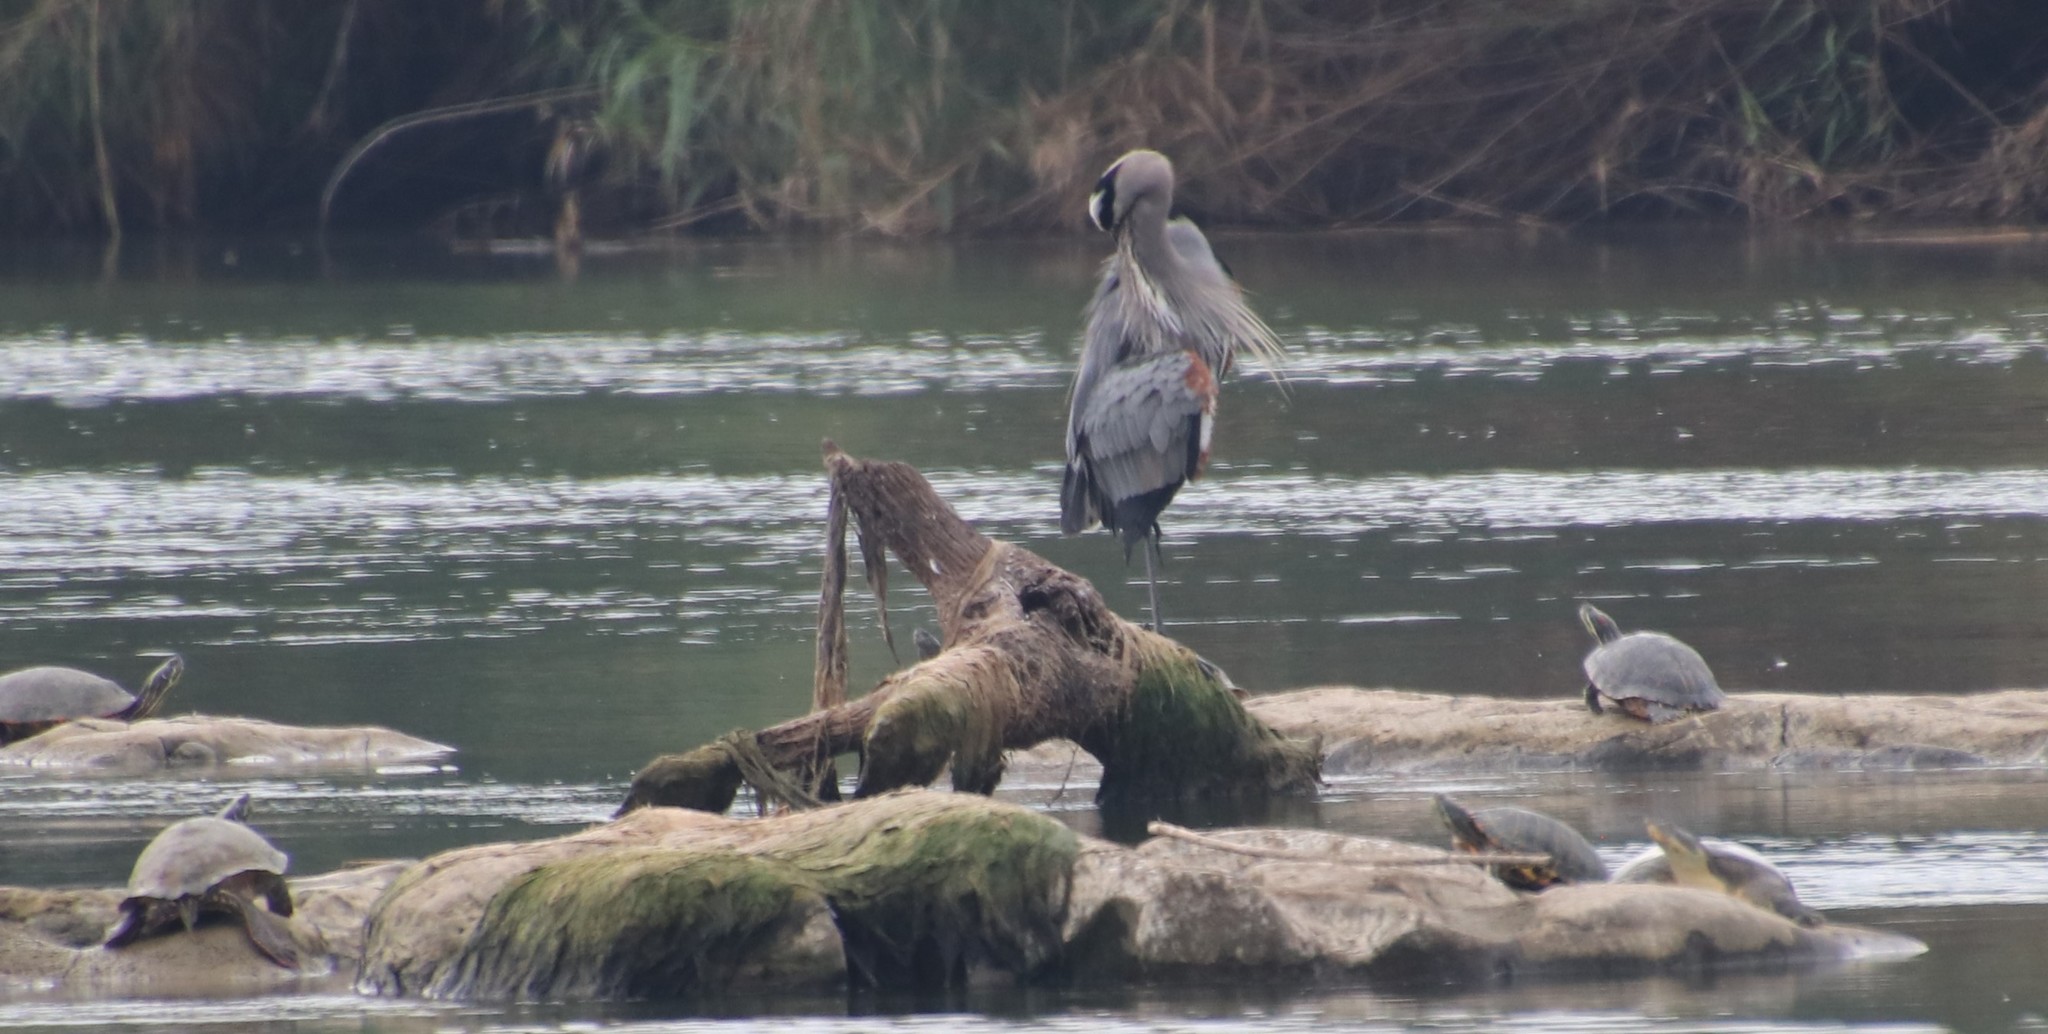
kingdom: Animalia
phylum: Chordata
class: Aves
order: Pelecaniformes
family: Ardeidae
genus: Ardea
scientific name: Ardea herodias
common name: Great blue heron
